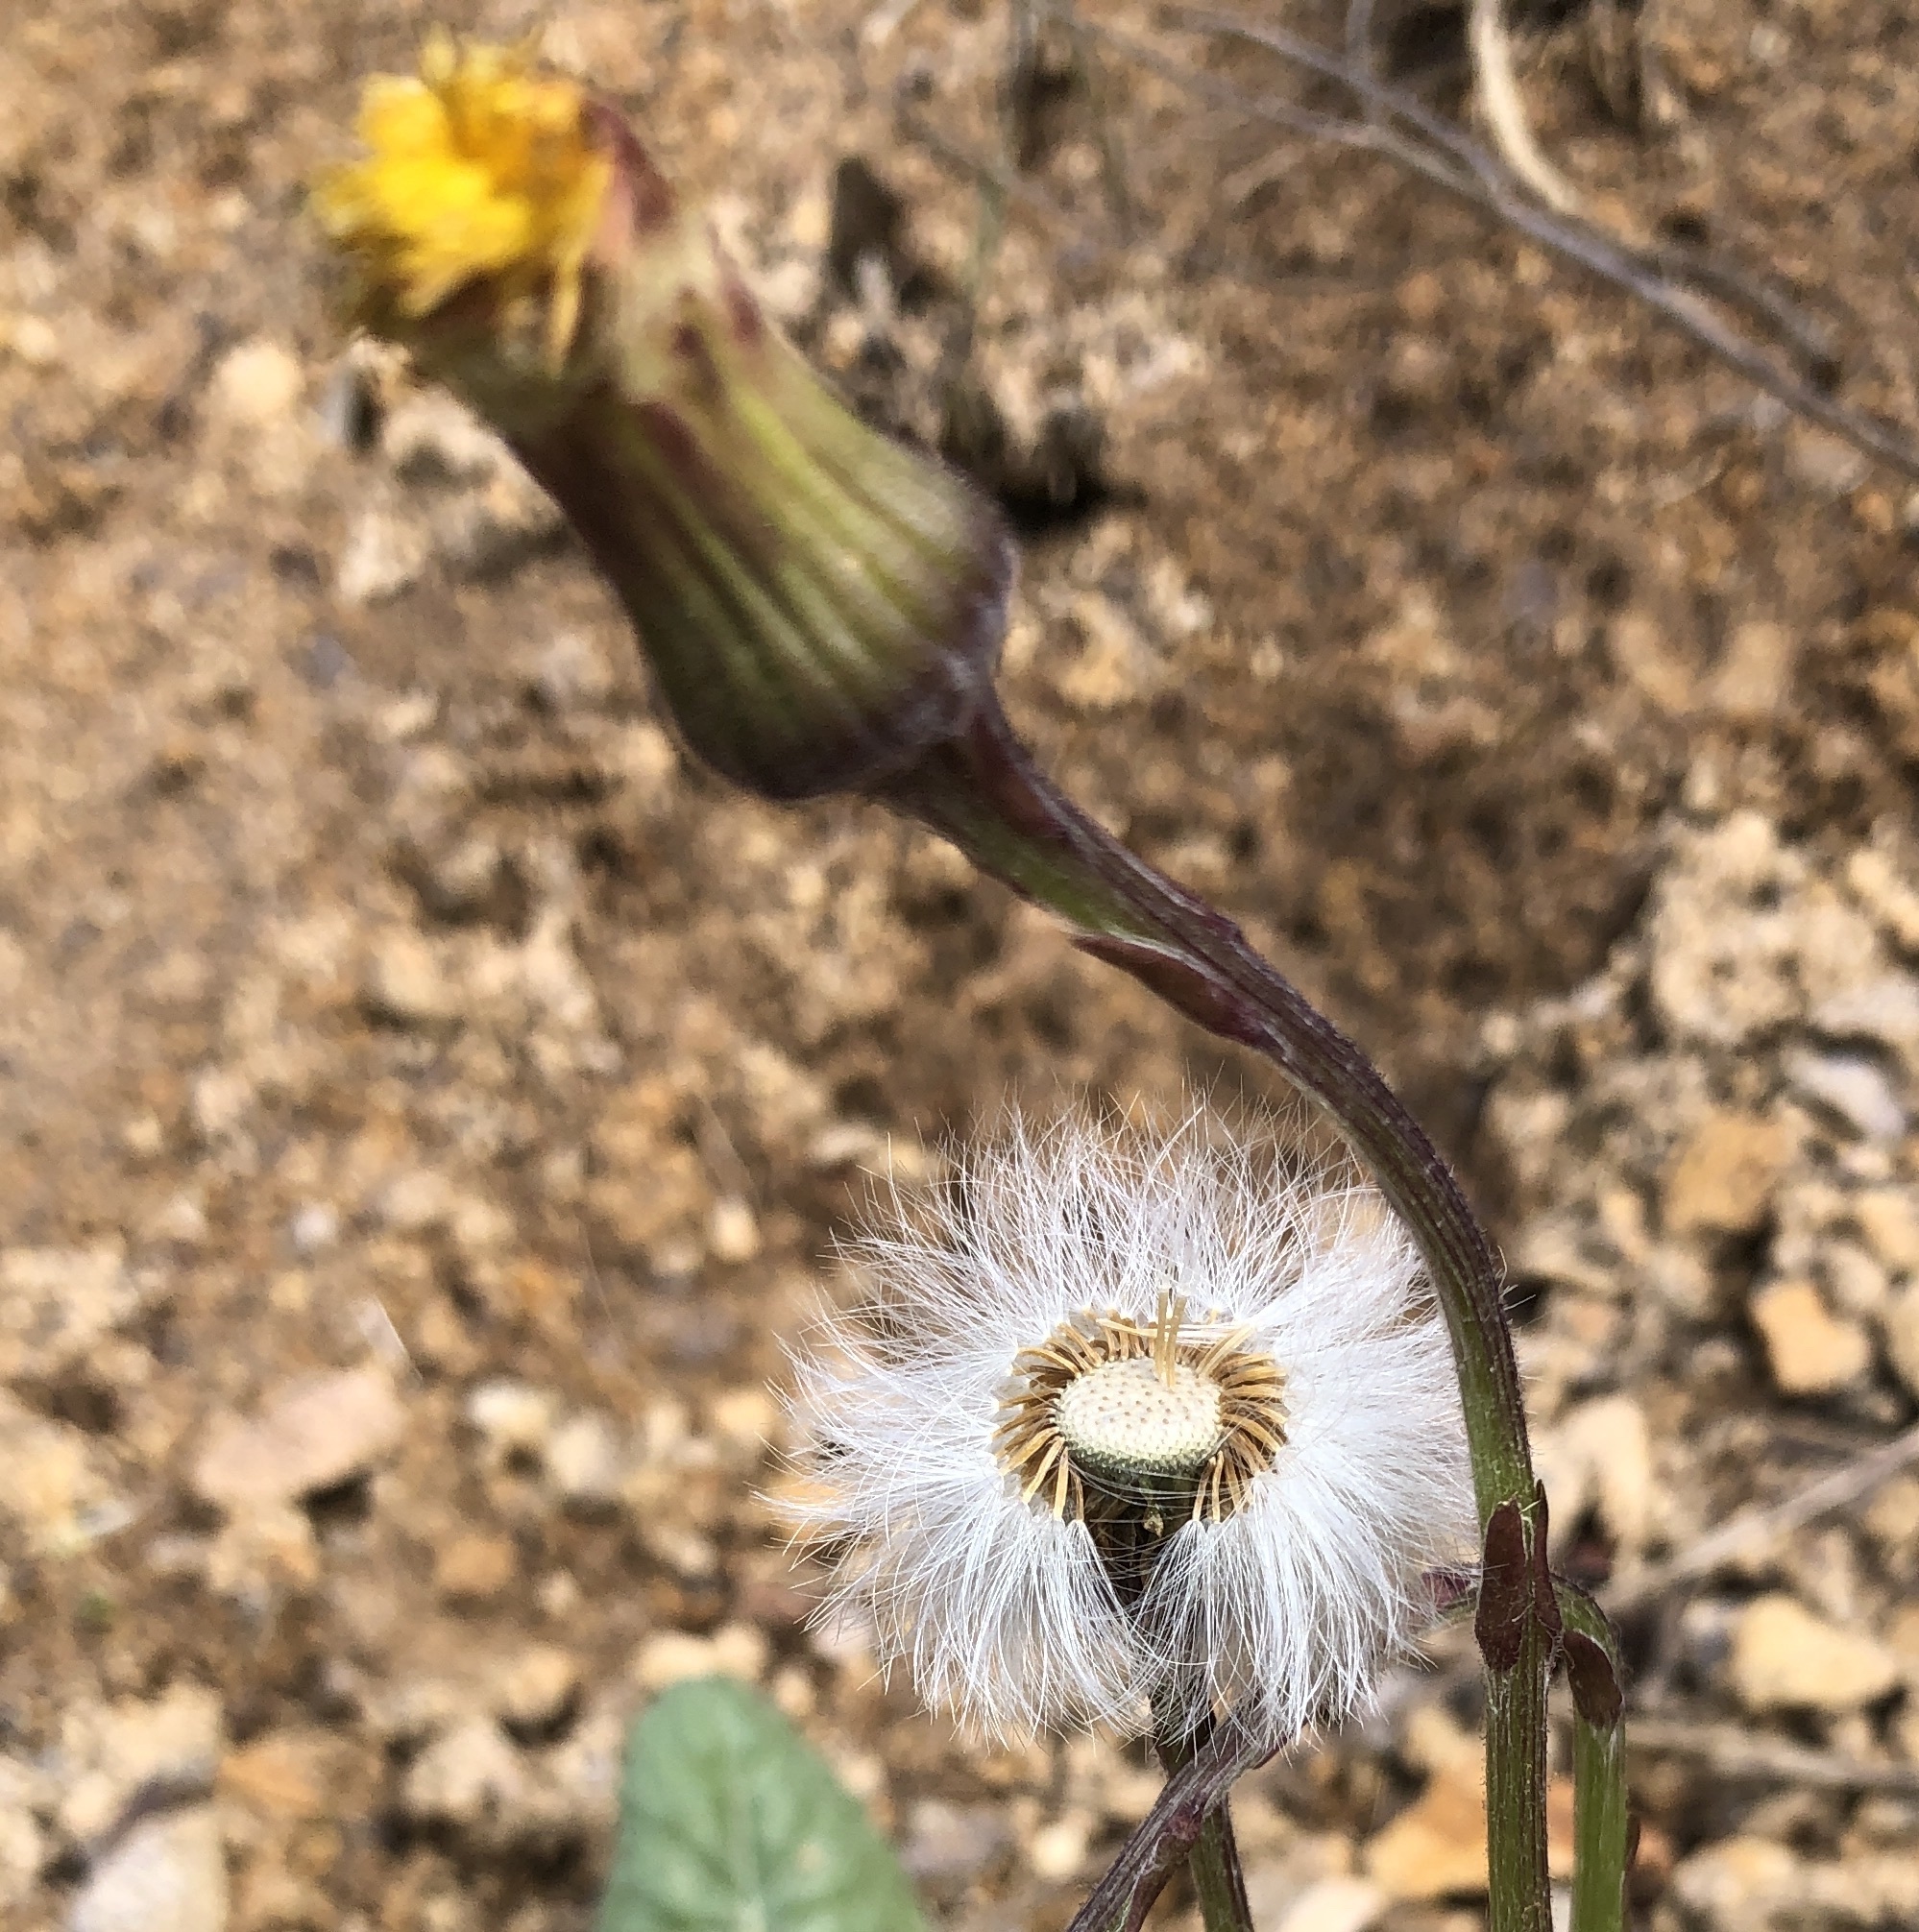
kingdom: Plantae
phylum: Tracheophyta
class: Magnoliopsida
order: Asterales
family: Asteraceae
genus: Tussilago
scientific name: Tussilago farfara
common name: Coltsfoot
